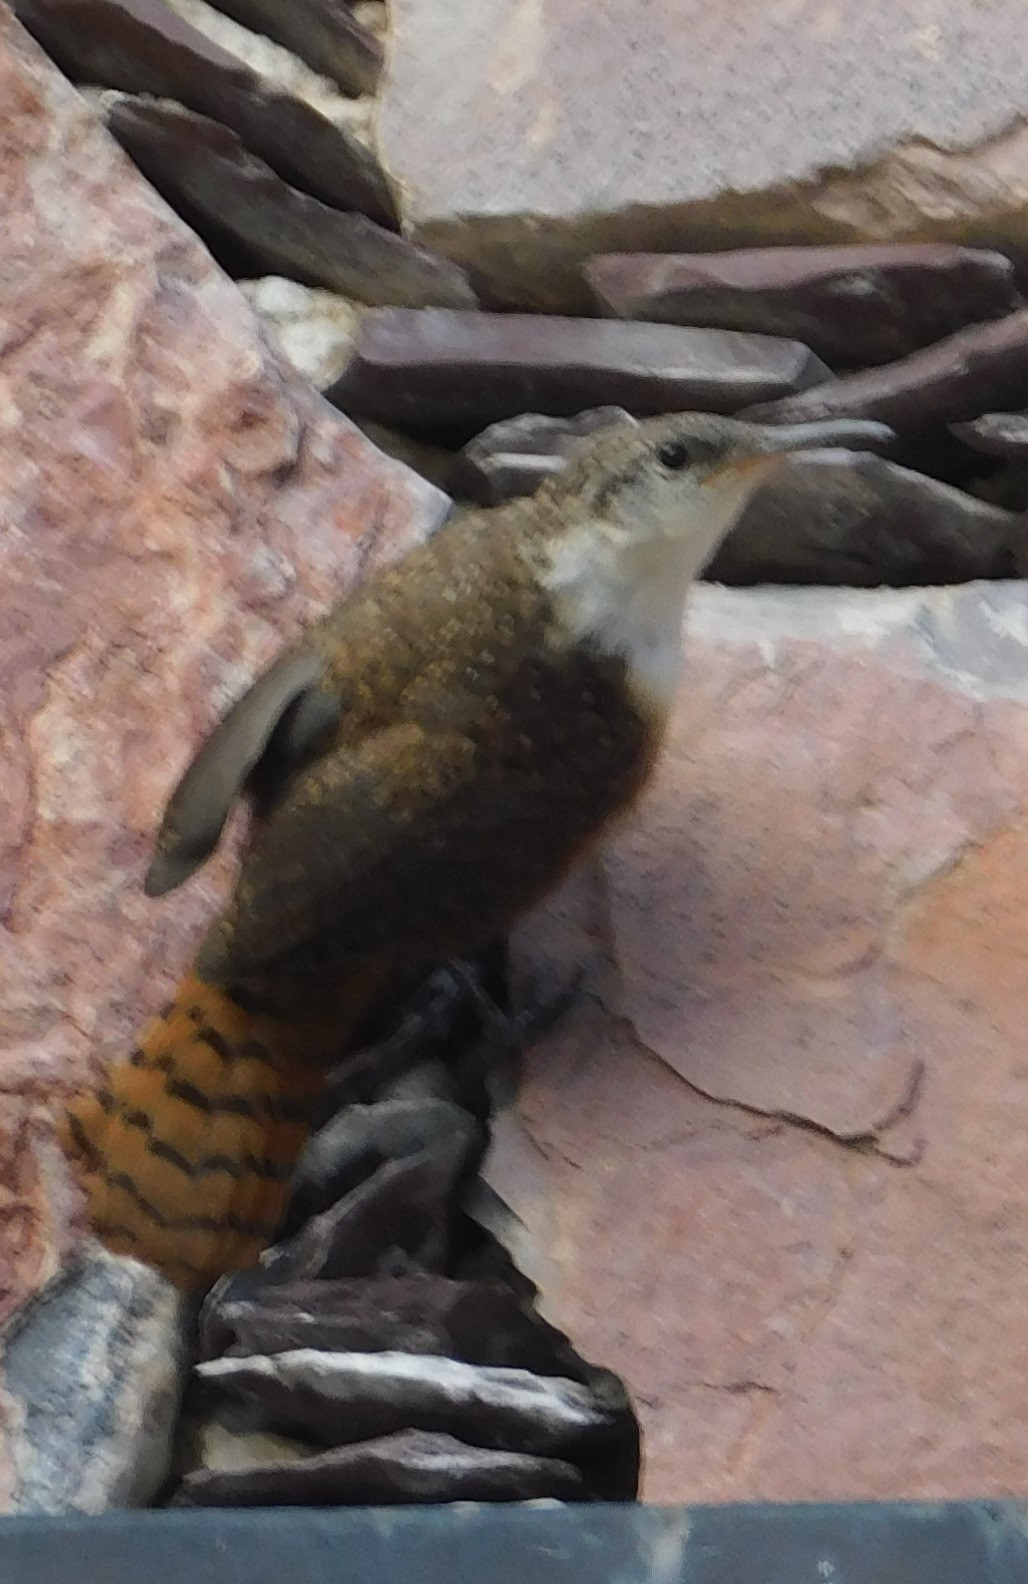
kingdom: Animalia
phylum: Chordata
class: Aves
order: Passeriformes
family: Troglodytidae
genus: Catherpes
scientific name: Catherpes mexicanus
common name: Canyon wren
